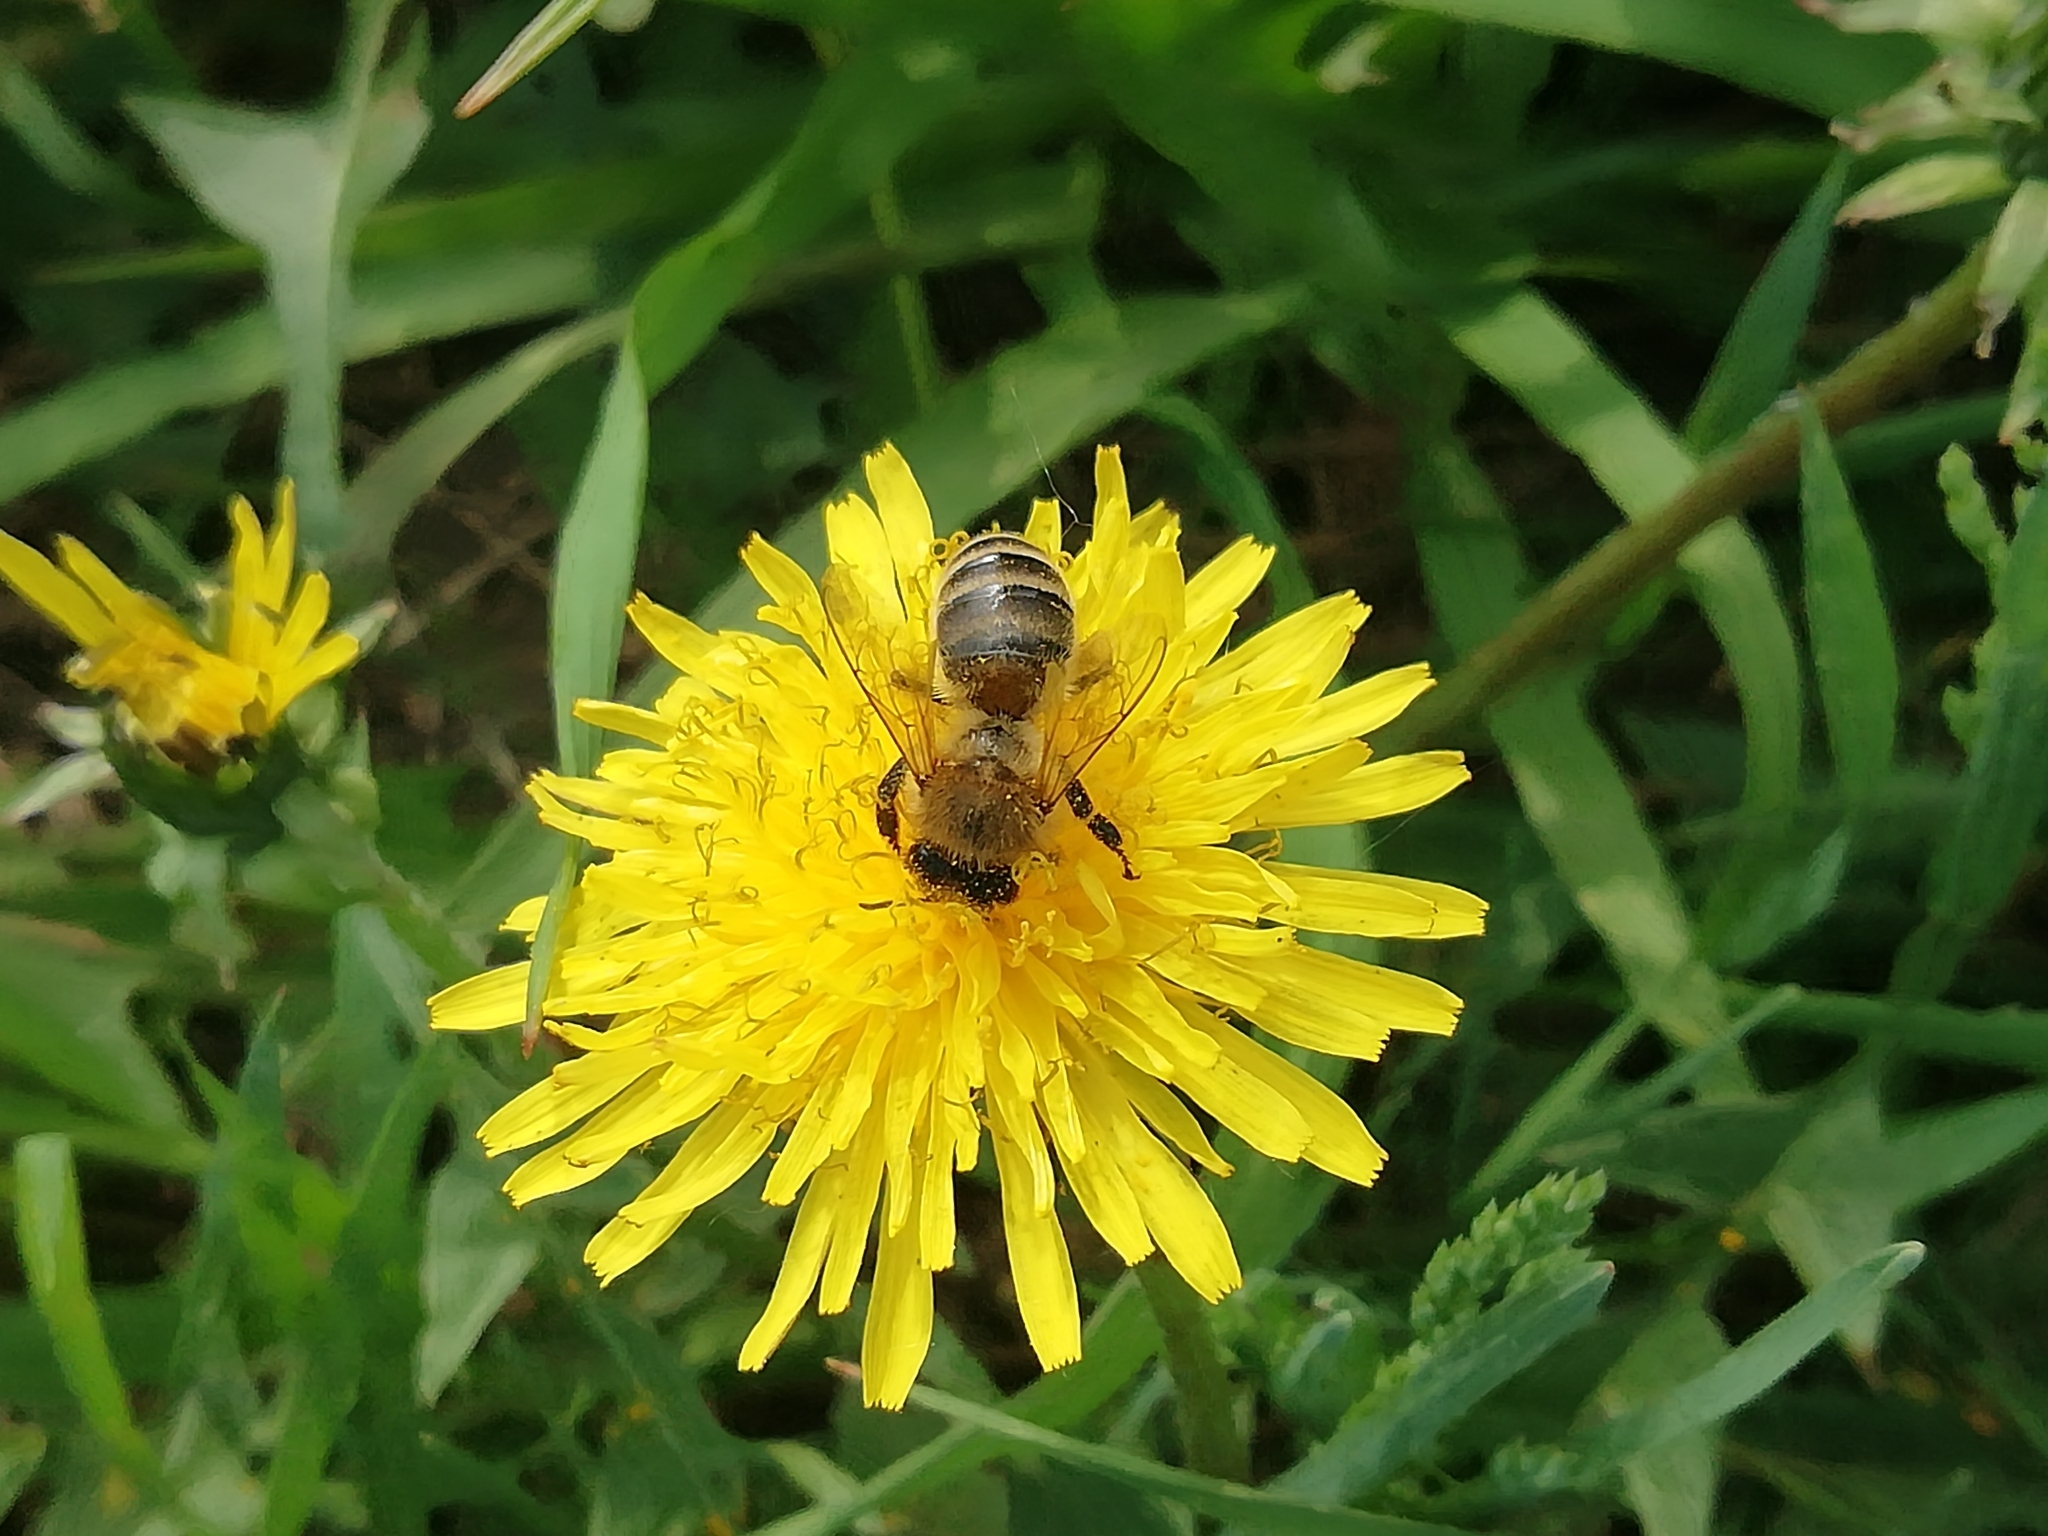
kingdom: Animalia
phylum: Arthropoda
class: Insecta
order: Hymenoptera
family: Apidae
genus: Apis
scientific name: Apis mellifera
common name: Honey bee
